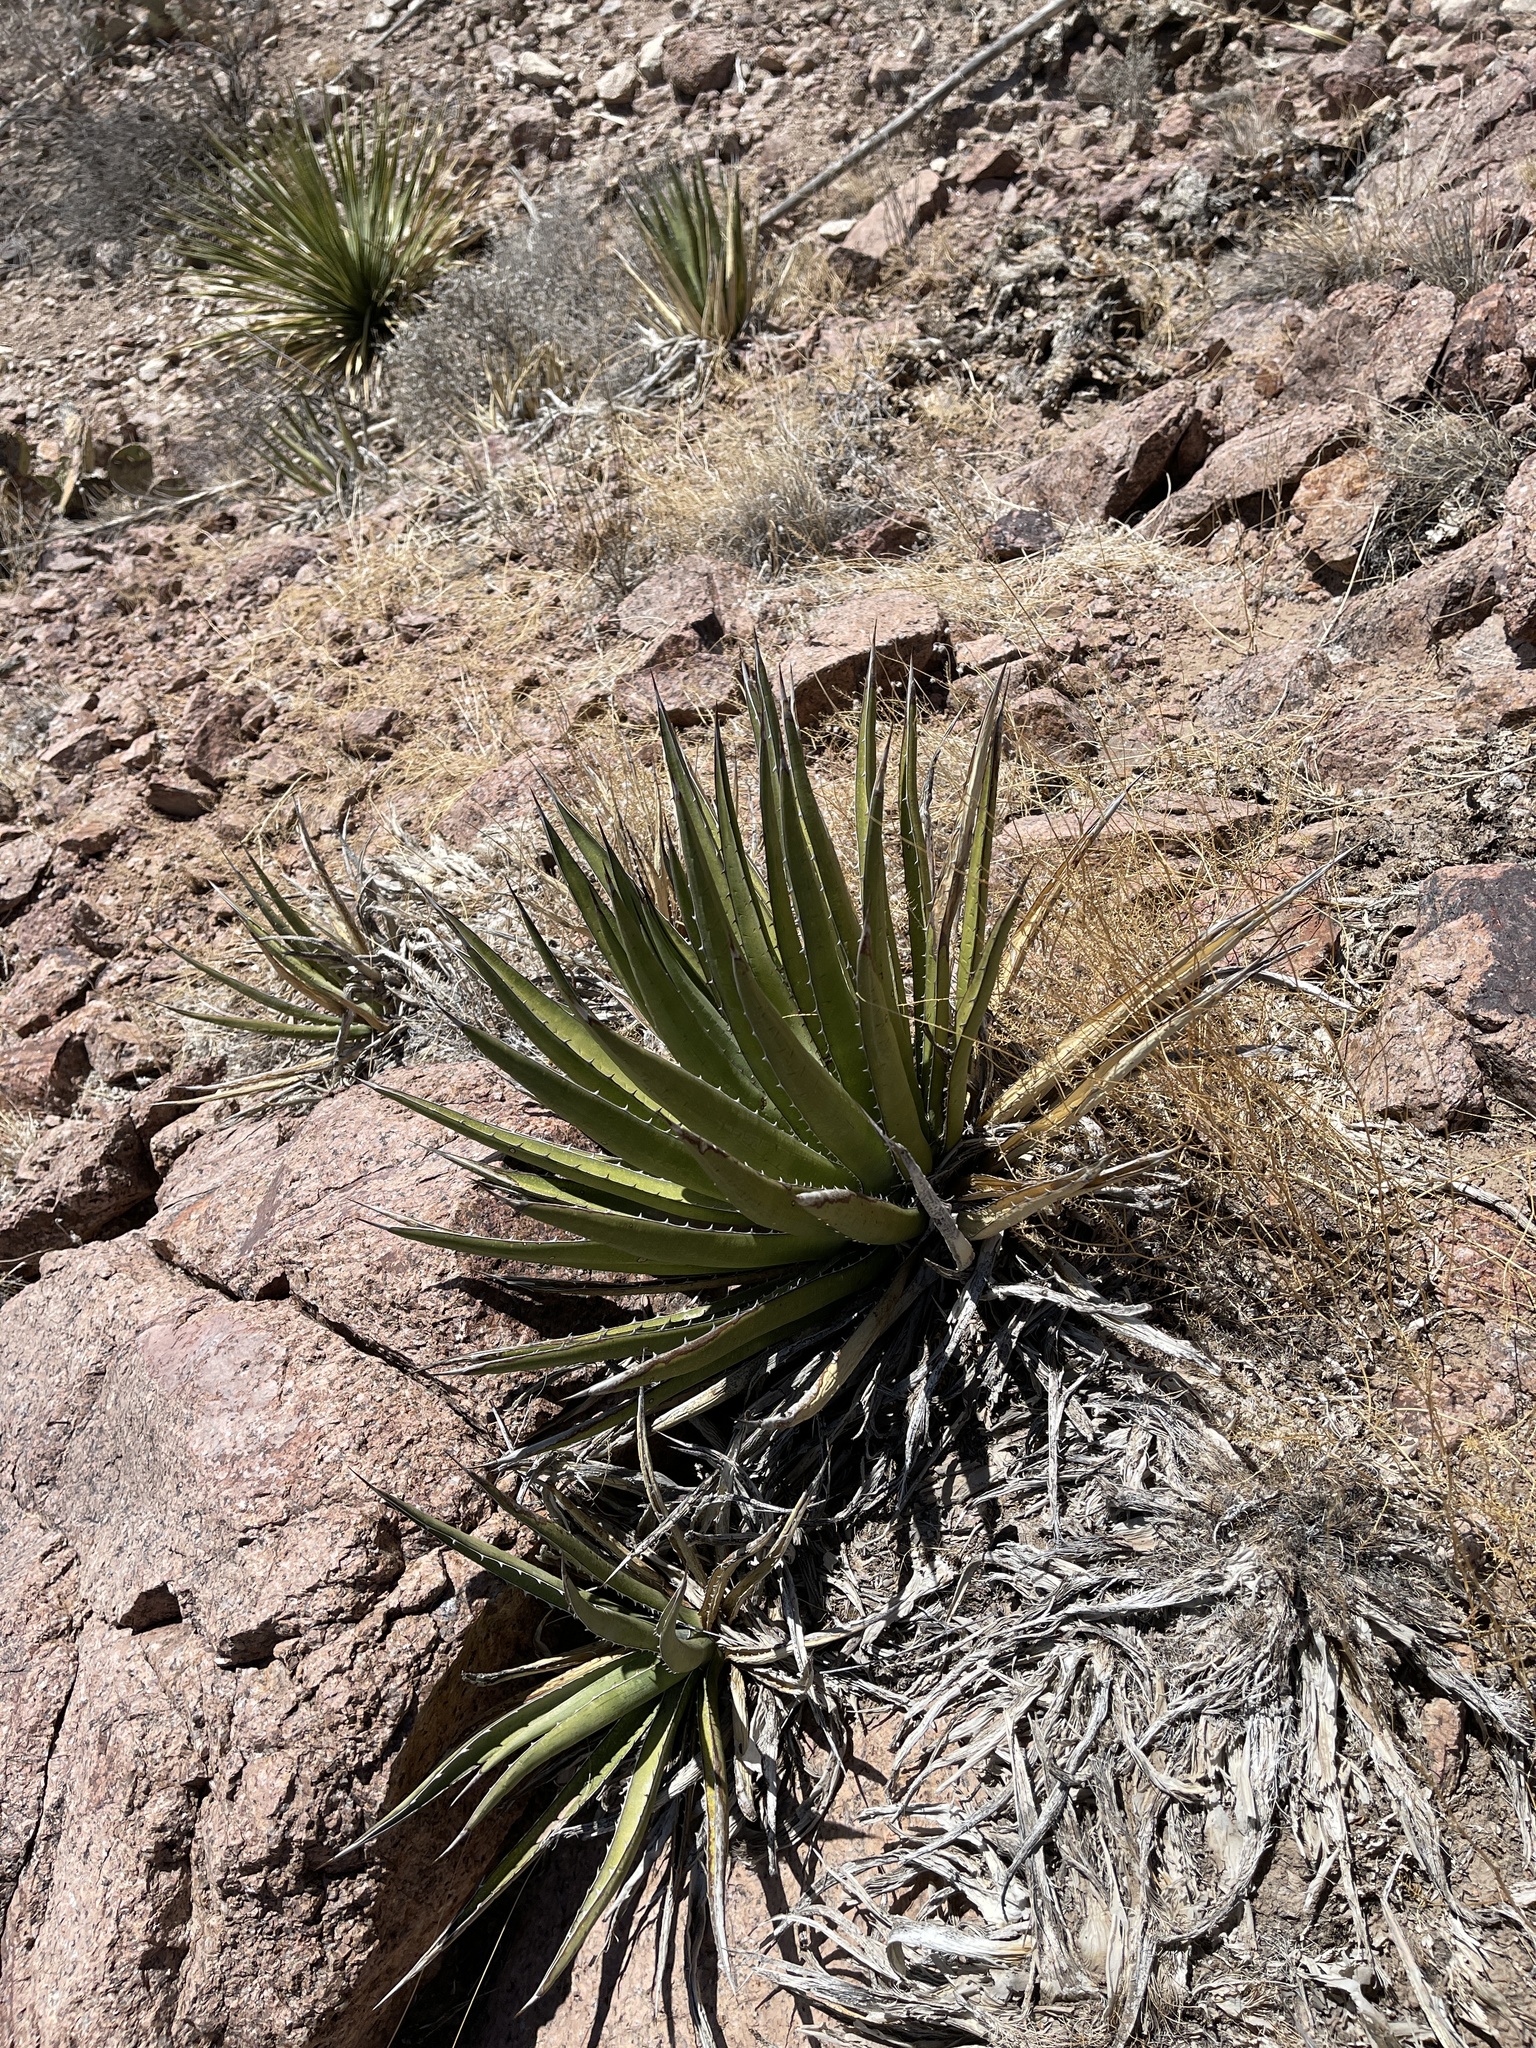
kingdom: Plantae
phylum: Tracheophyta
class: Liliopsida
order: Asparagales
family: Asparagaceae
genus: Agave
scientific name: Agave lechuguilla
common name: Lecheguilla agave
